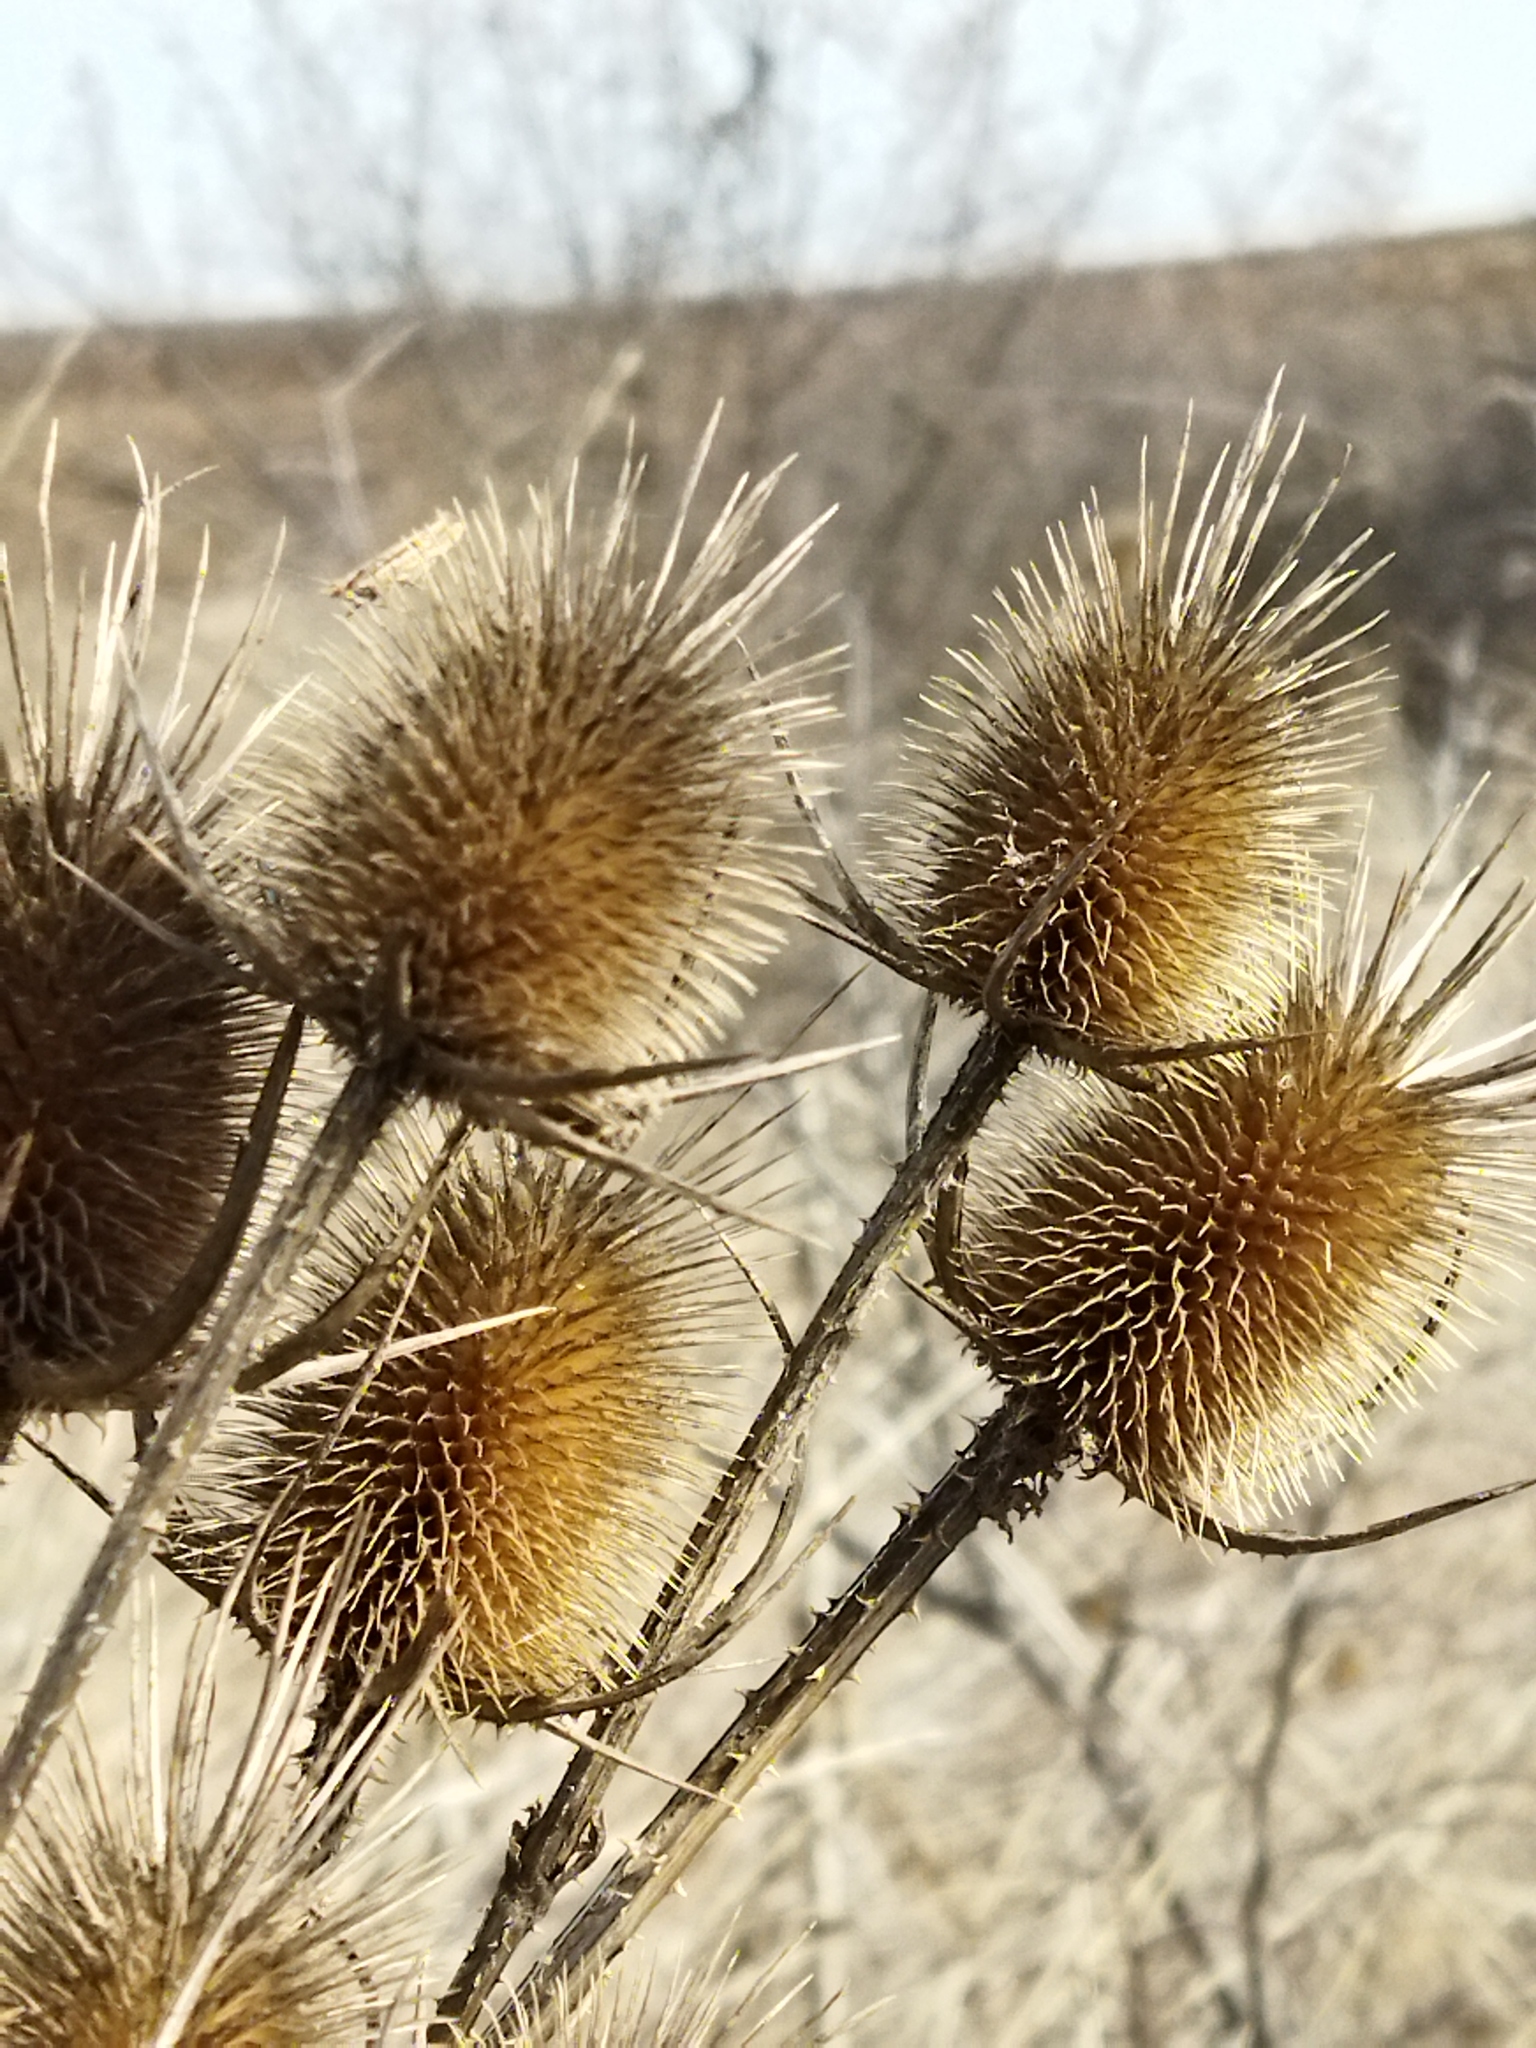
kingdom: Plantae
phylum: Tracheophyta
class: Magnoliopsida
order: Dipsacales
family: Caprifoliaceae
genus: Dipsacus
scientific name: Dipsacus laciniatus
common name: Cut-leaved teasel
